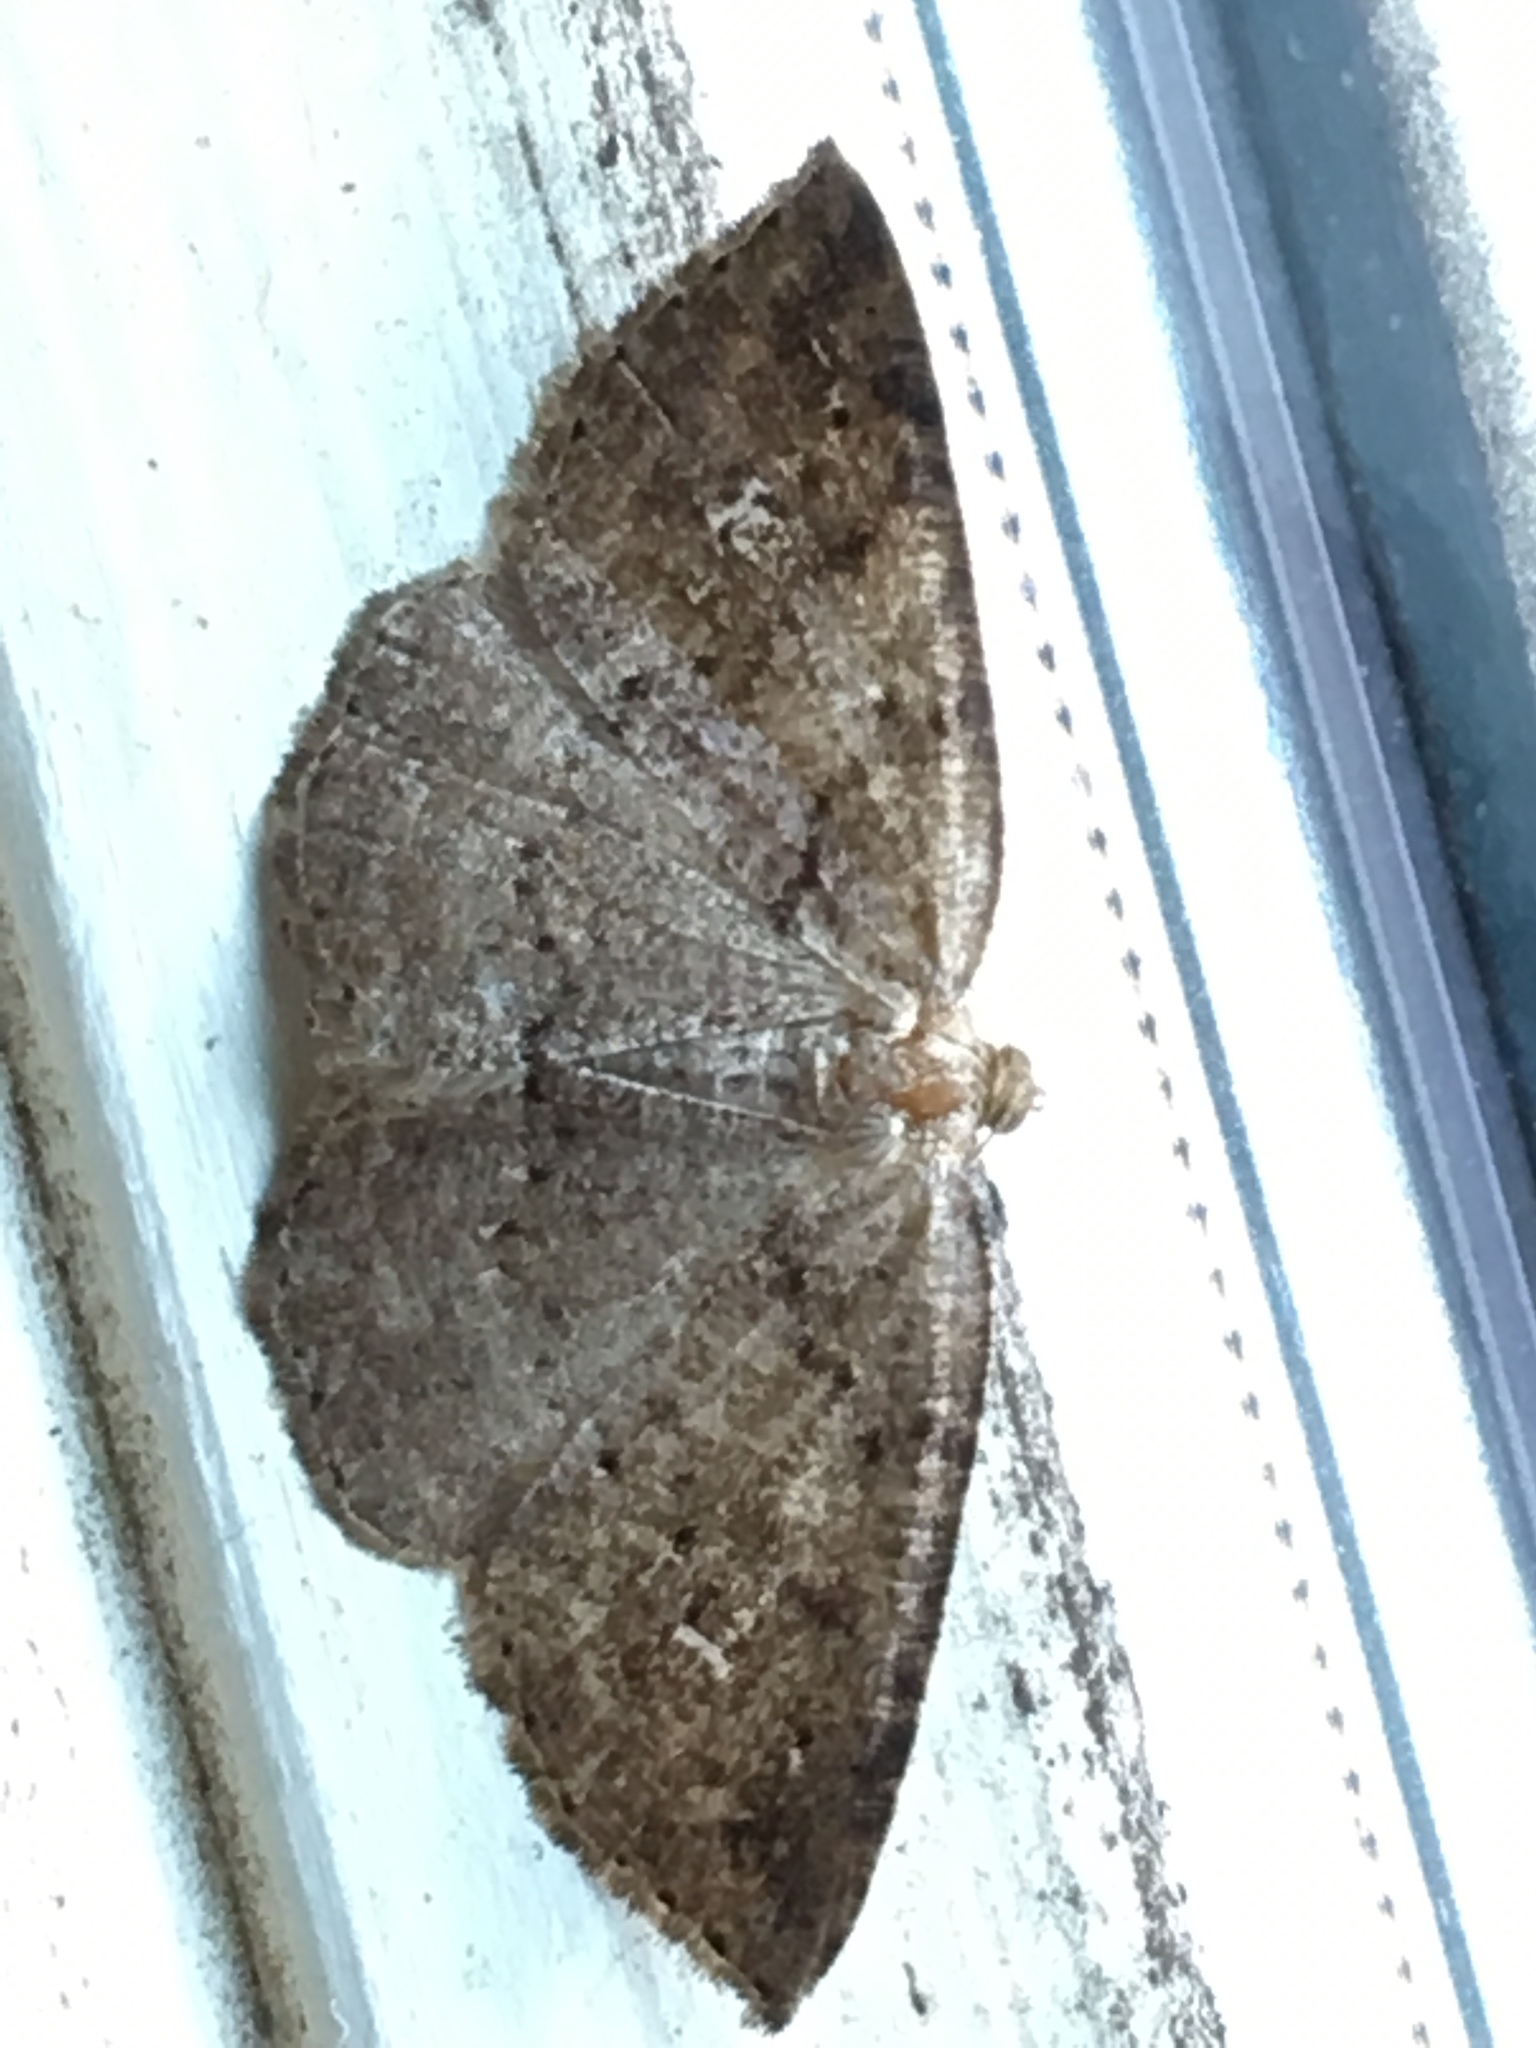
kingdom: Animalia
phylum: Arthropoda
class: Insecta
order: Lepidoptera
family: Geometridae
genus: Homochlodes
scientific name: Homochlodes fritillaria
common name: Pale homochlodes
